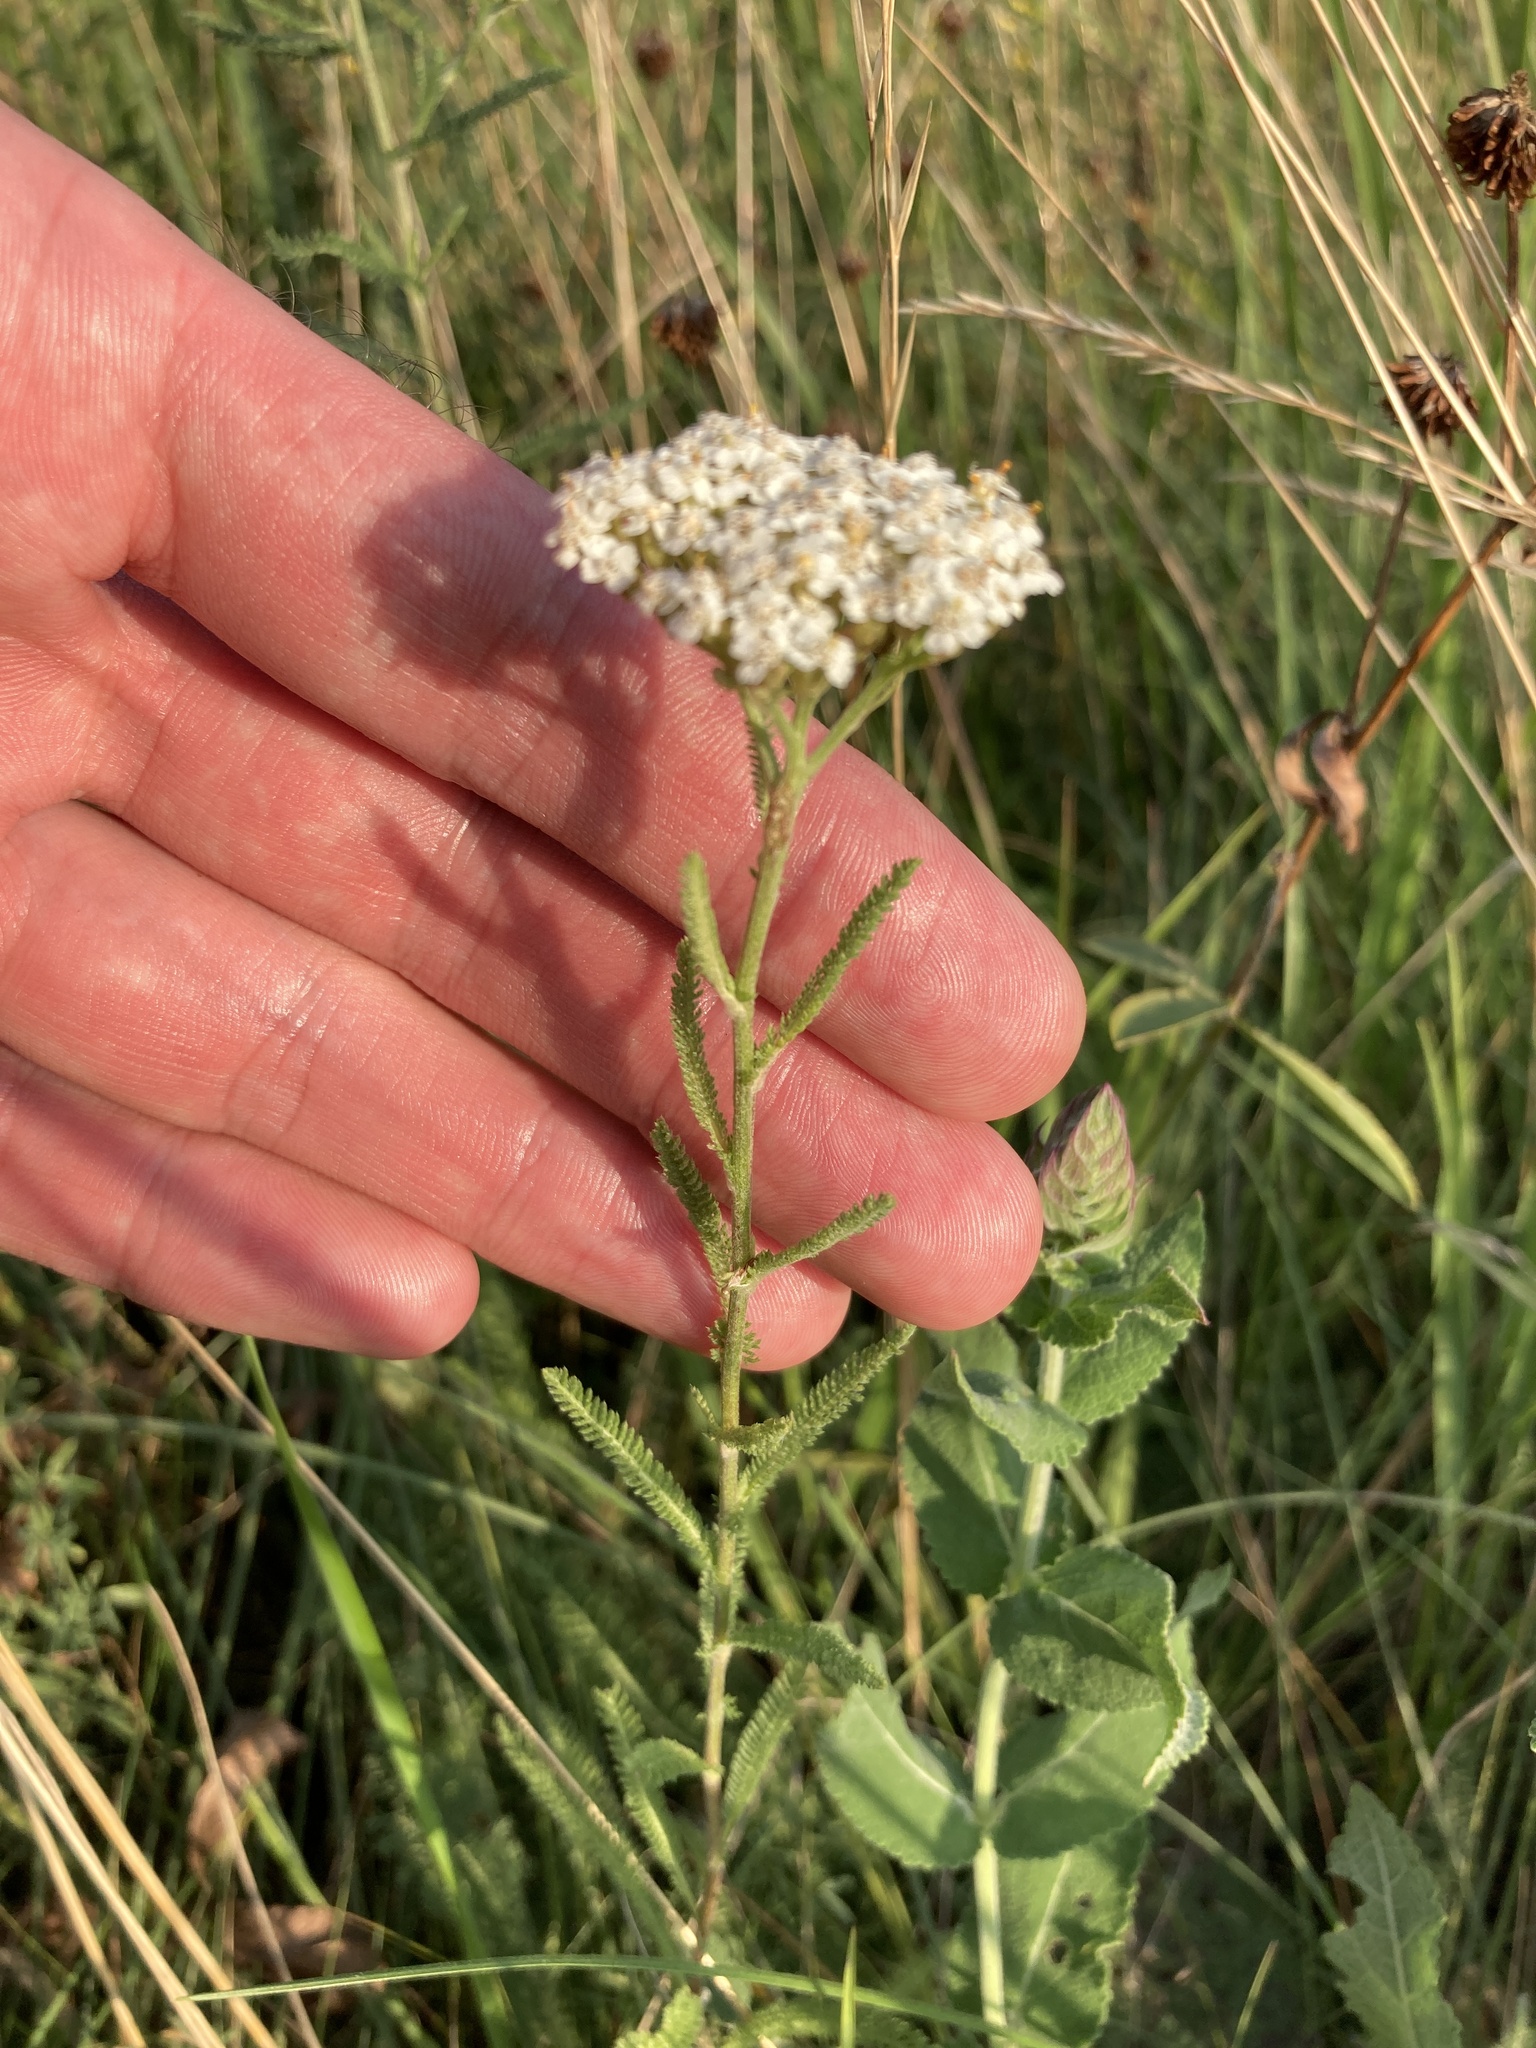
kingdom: Plantae
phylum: Tracheophyta
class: Magnoliopsida
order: Asterales
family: Asteraceae
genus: Achillea
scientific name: Achillea setacea
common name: Bristly yarrow
